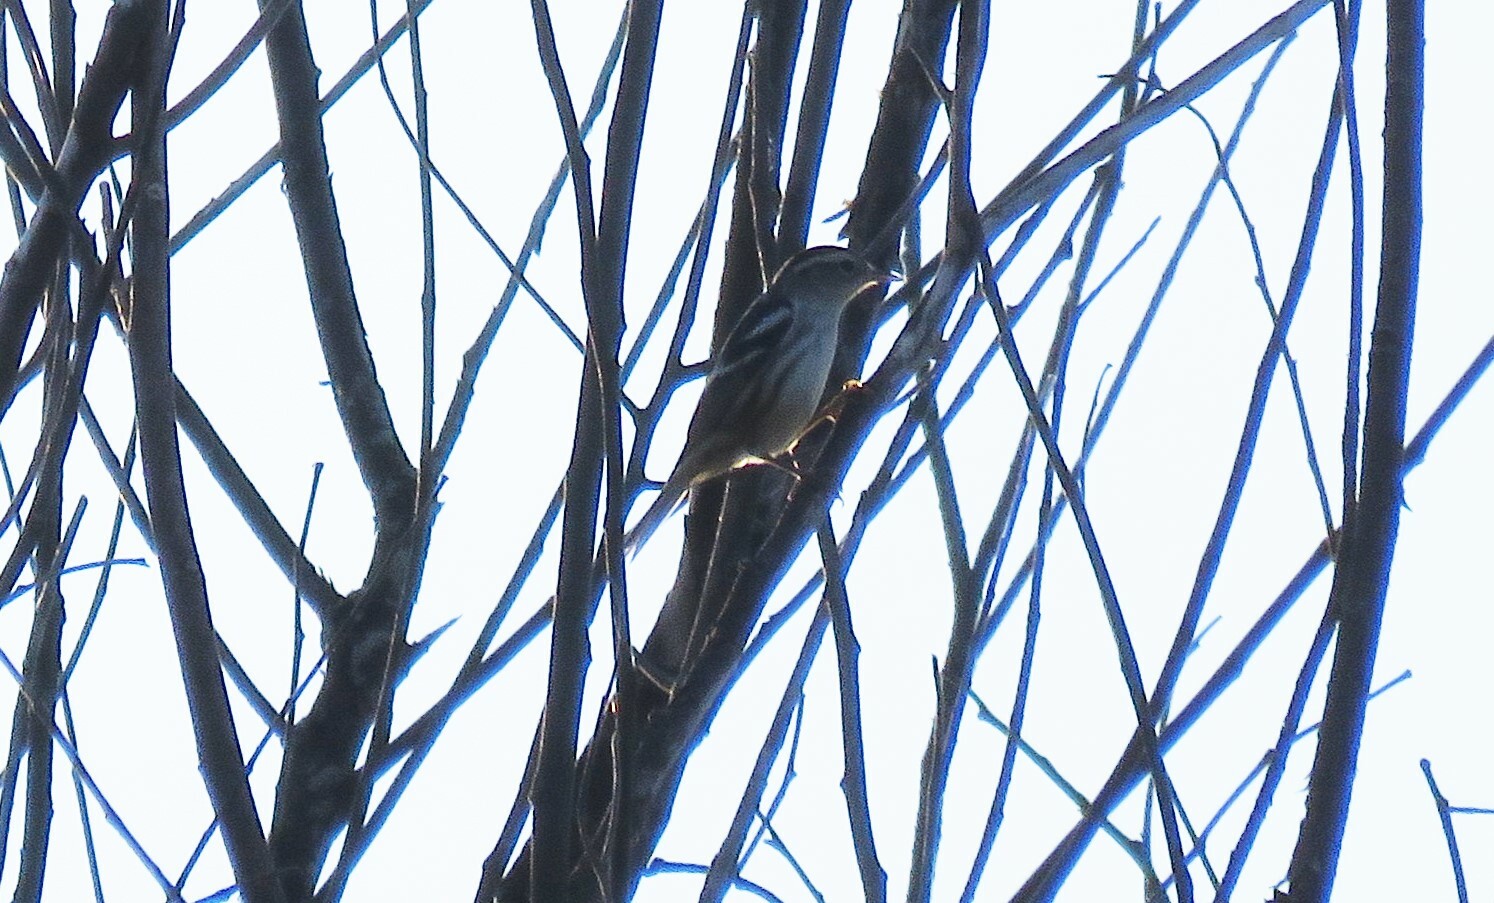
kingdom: Animalia
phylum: Chordata
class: Aves
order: Passeriformes
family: Parulidae
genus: Mniotilta
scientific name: Mniotilta varia
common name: Black-and-white warbler
